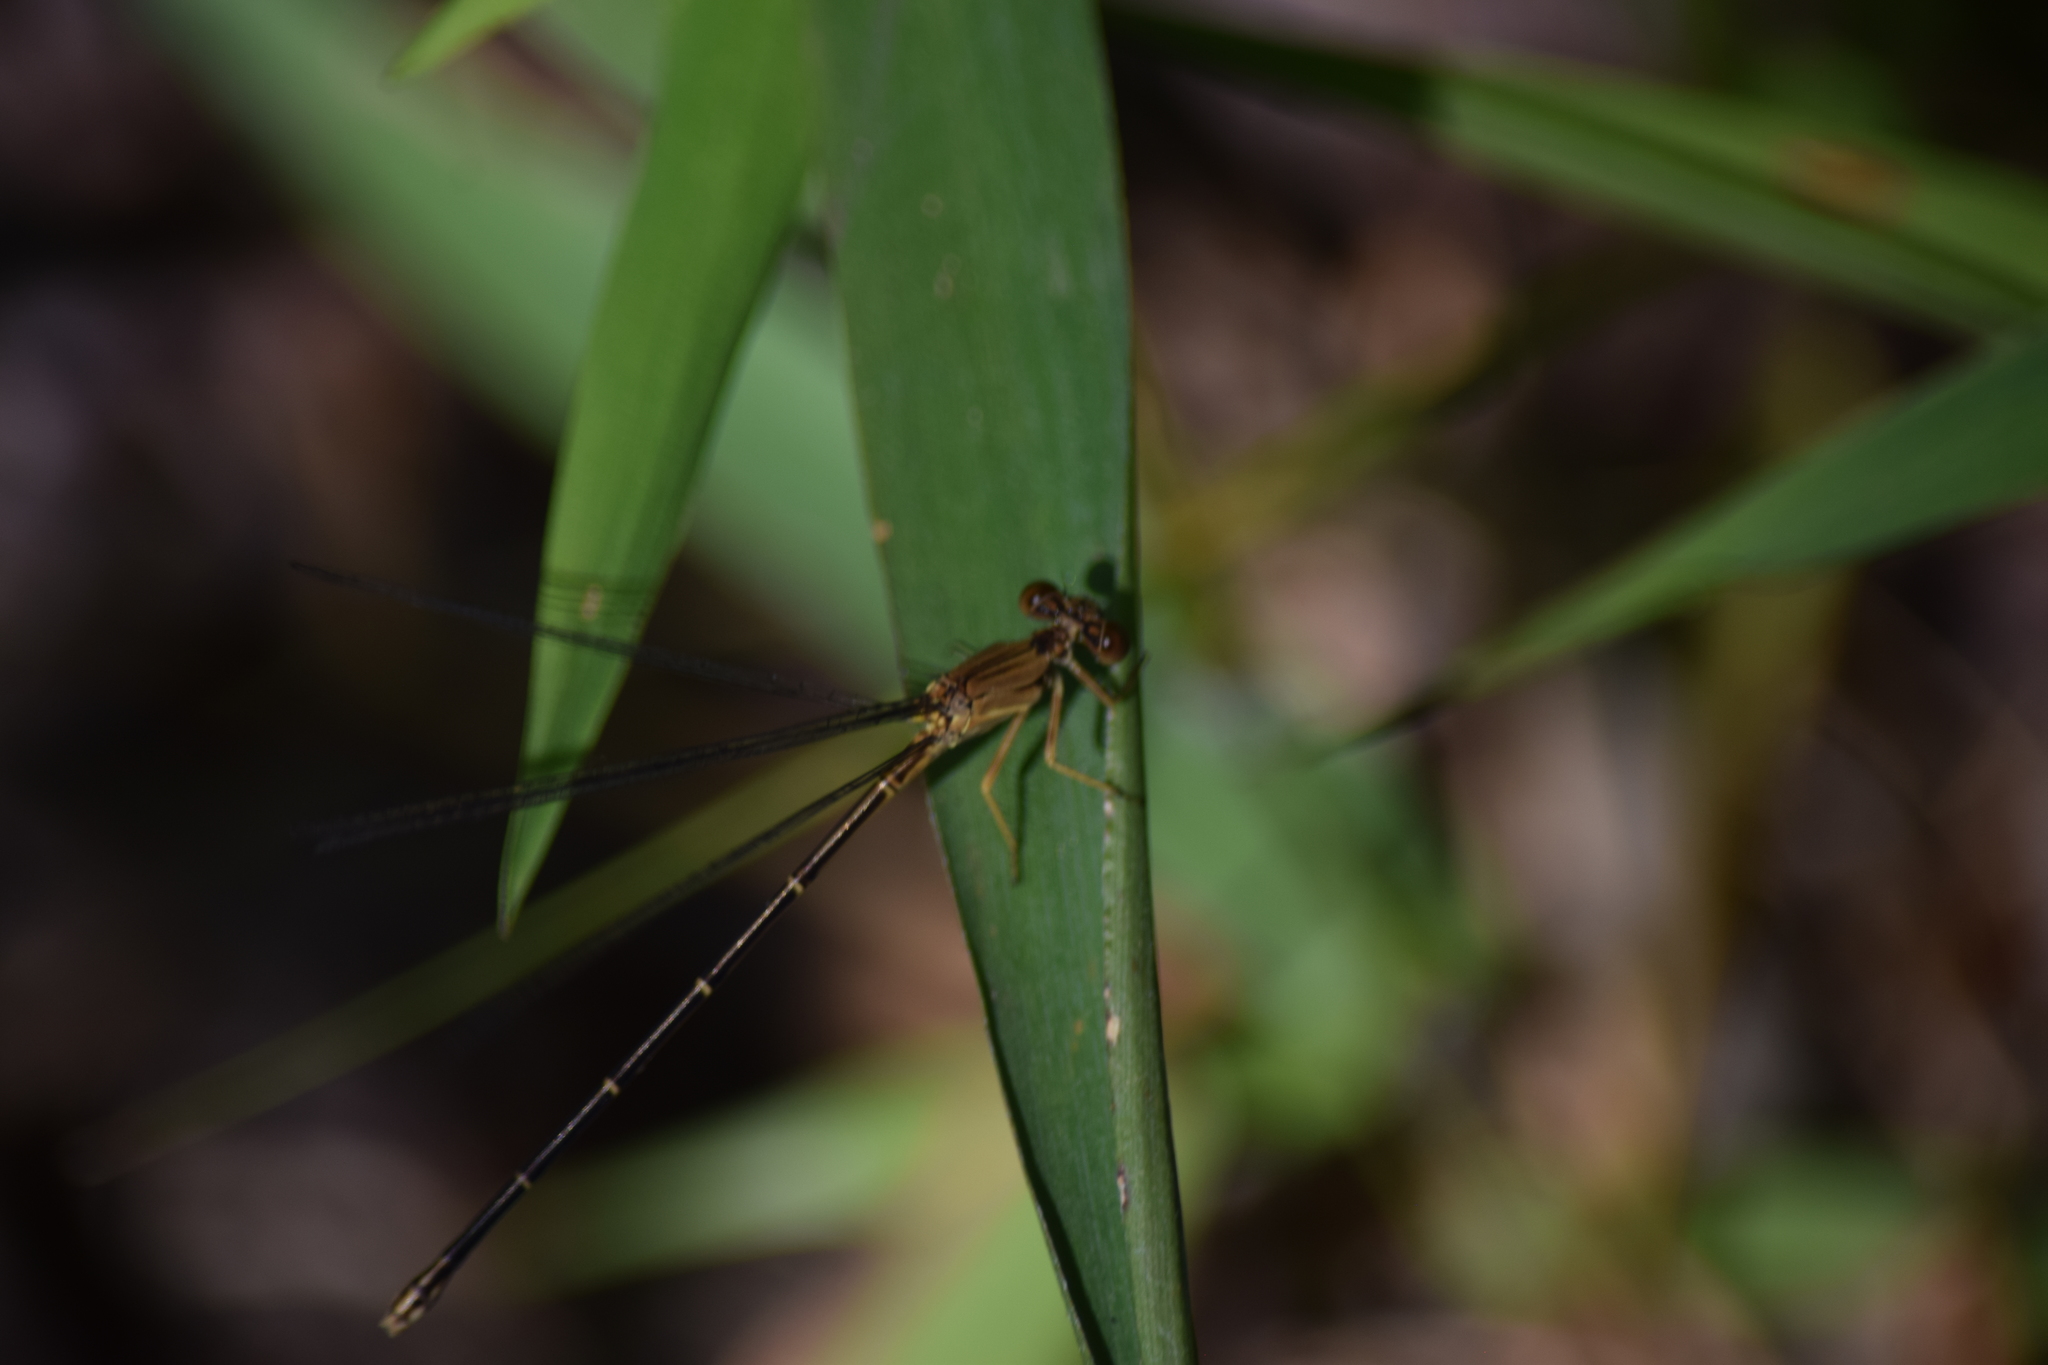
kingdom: Animalia
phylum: Arthropoda
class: Insecta
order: Odonata
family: Coenagrionidae
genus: Argia
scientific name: Argia apicalis
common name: Blue-fronted dancer
